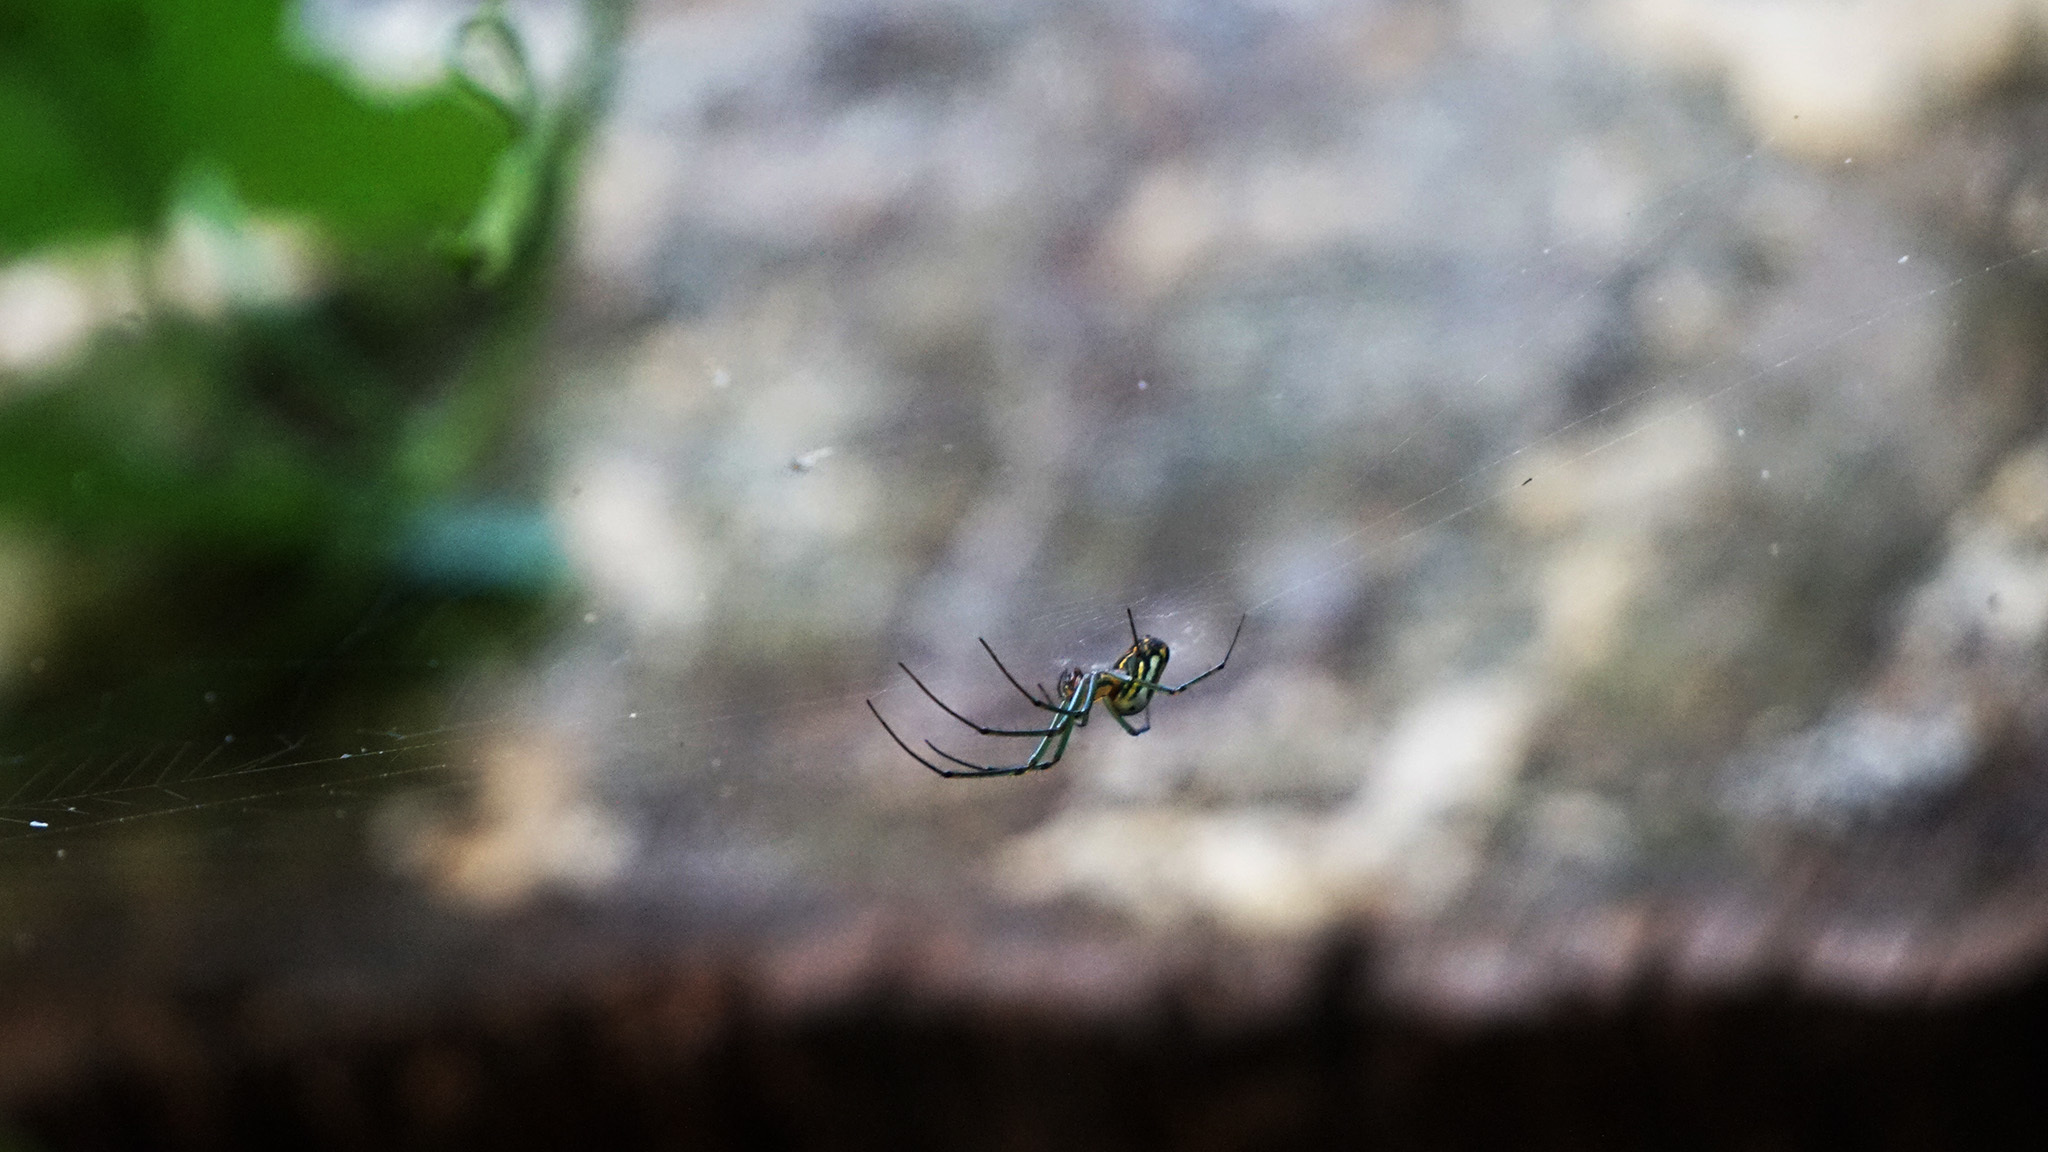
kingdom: Animalia
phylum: Arthropoda
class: Arachnida
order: Araneae
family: Tetragnathidae
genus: Leucauge
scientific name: Leucauge venusta
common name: Longjawed orb weavers
